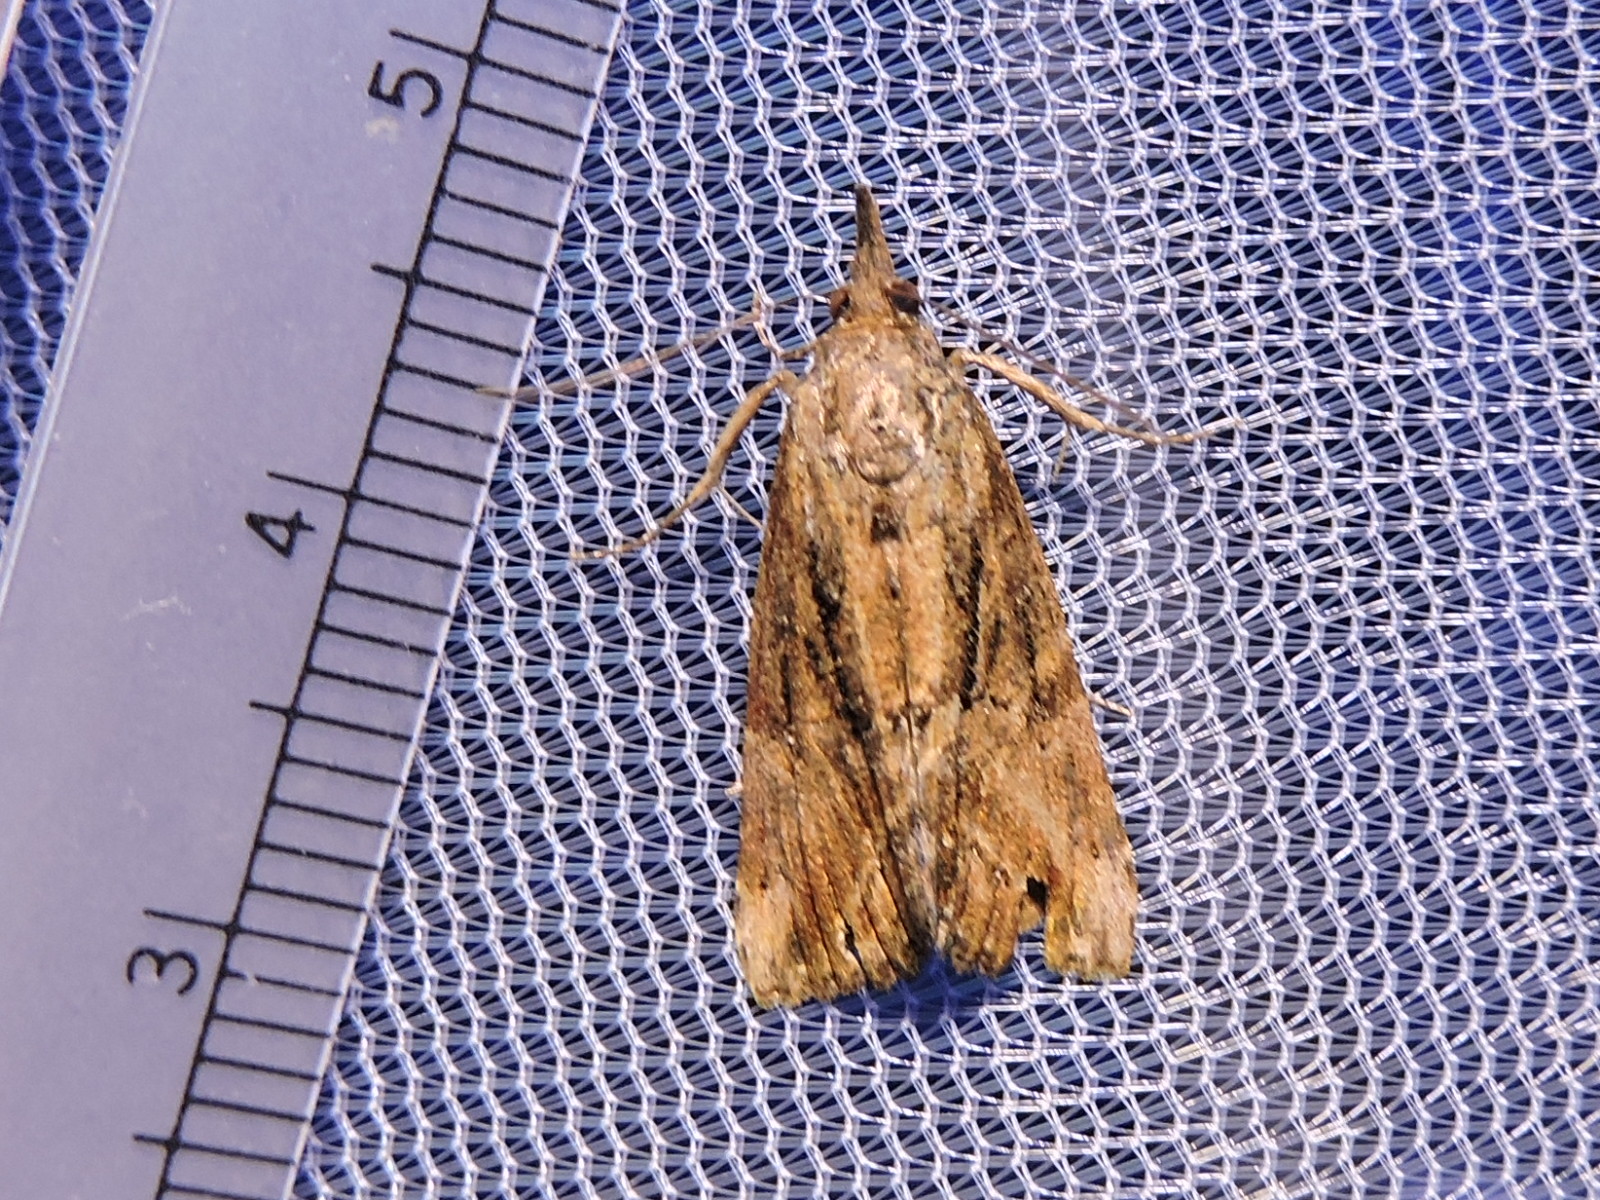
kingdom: Animalia
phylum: Arthropoda
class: Insecta
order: Lepidoptera
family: Erebidae
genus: Hypena
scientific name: Hypena scabra
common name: Green cloverworm
